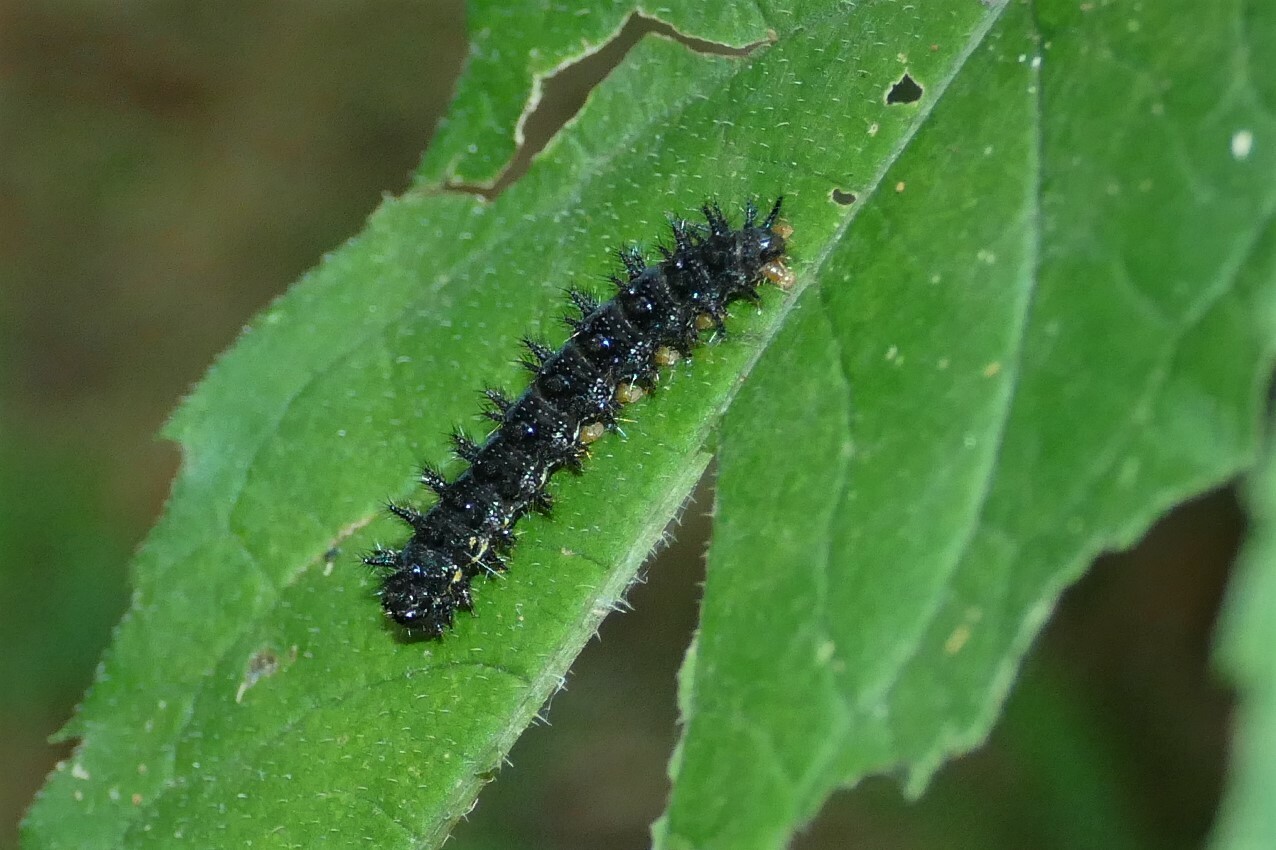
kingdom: Animalia
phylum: Arthropoda
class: Insecta
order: Lepidoptera
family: Nymphalidae
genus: Chlosyne
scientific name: Chlosyne nycteis
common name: Silvery checkerspot
